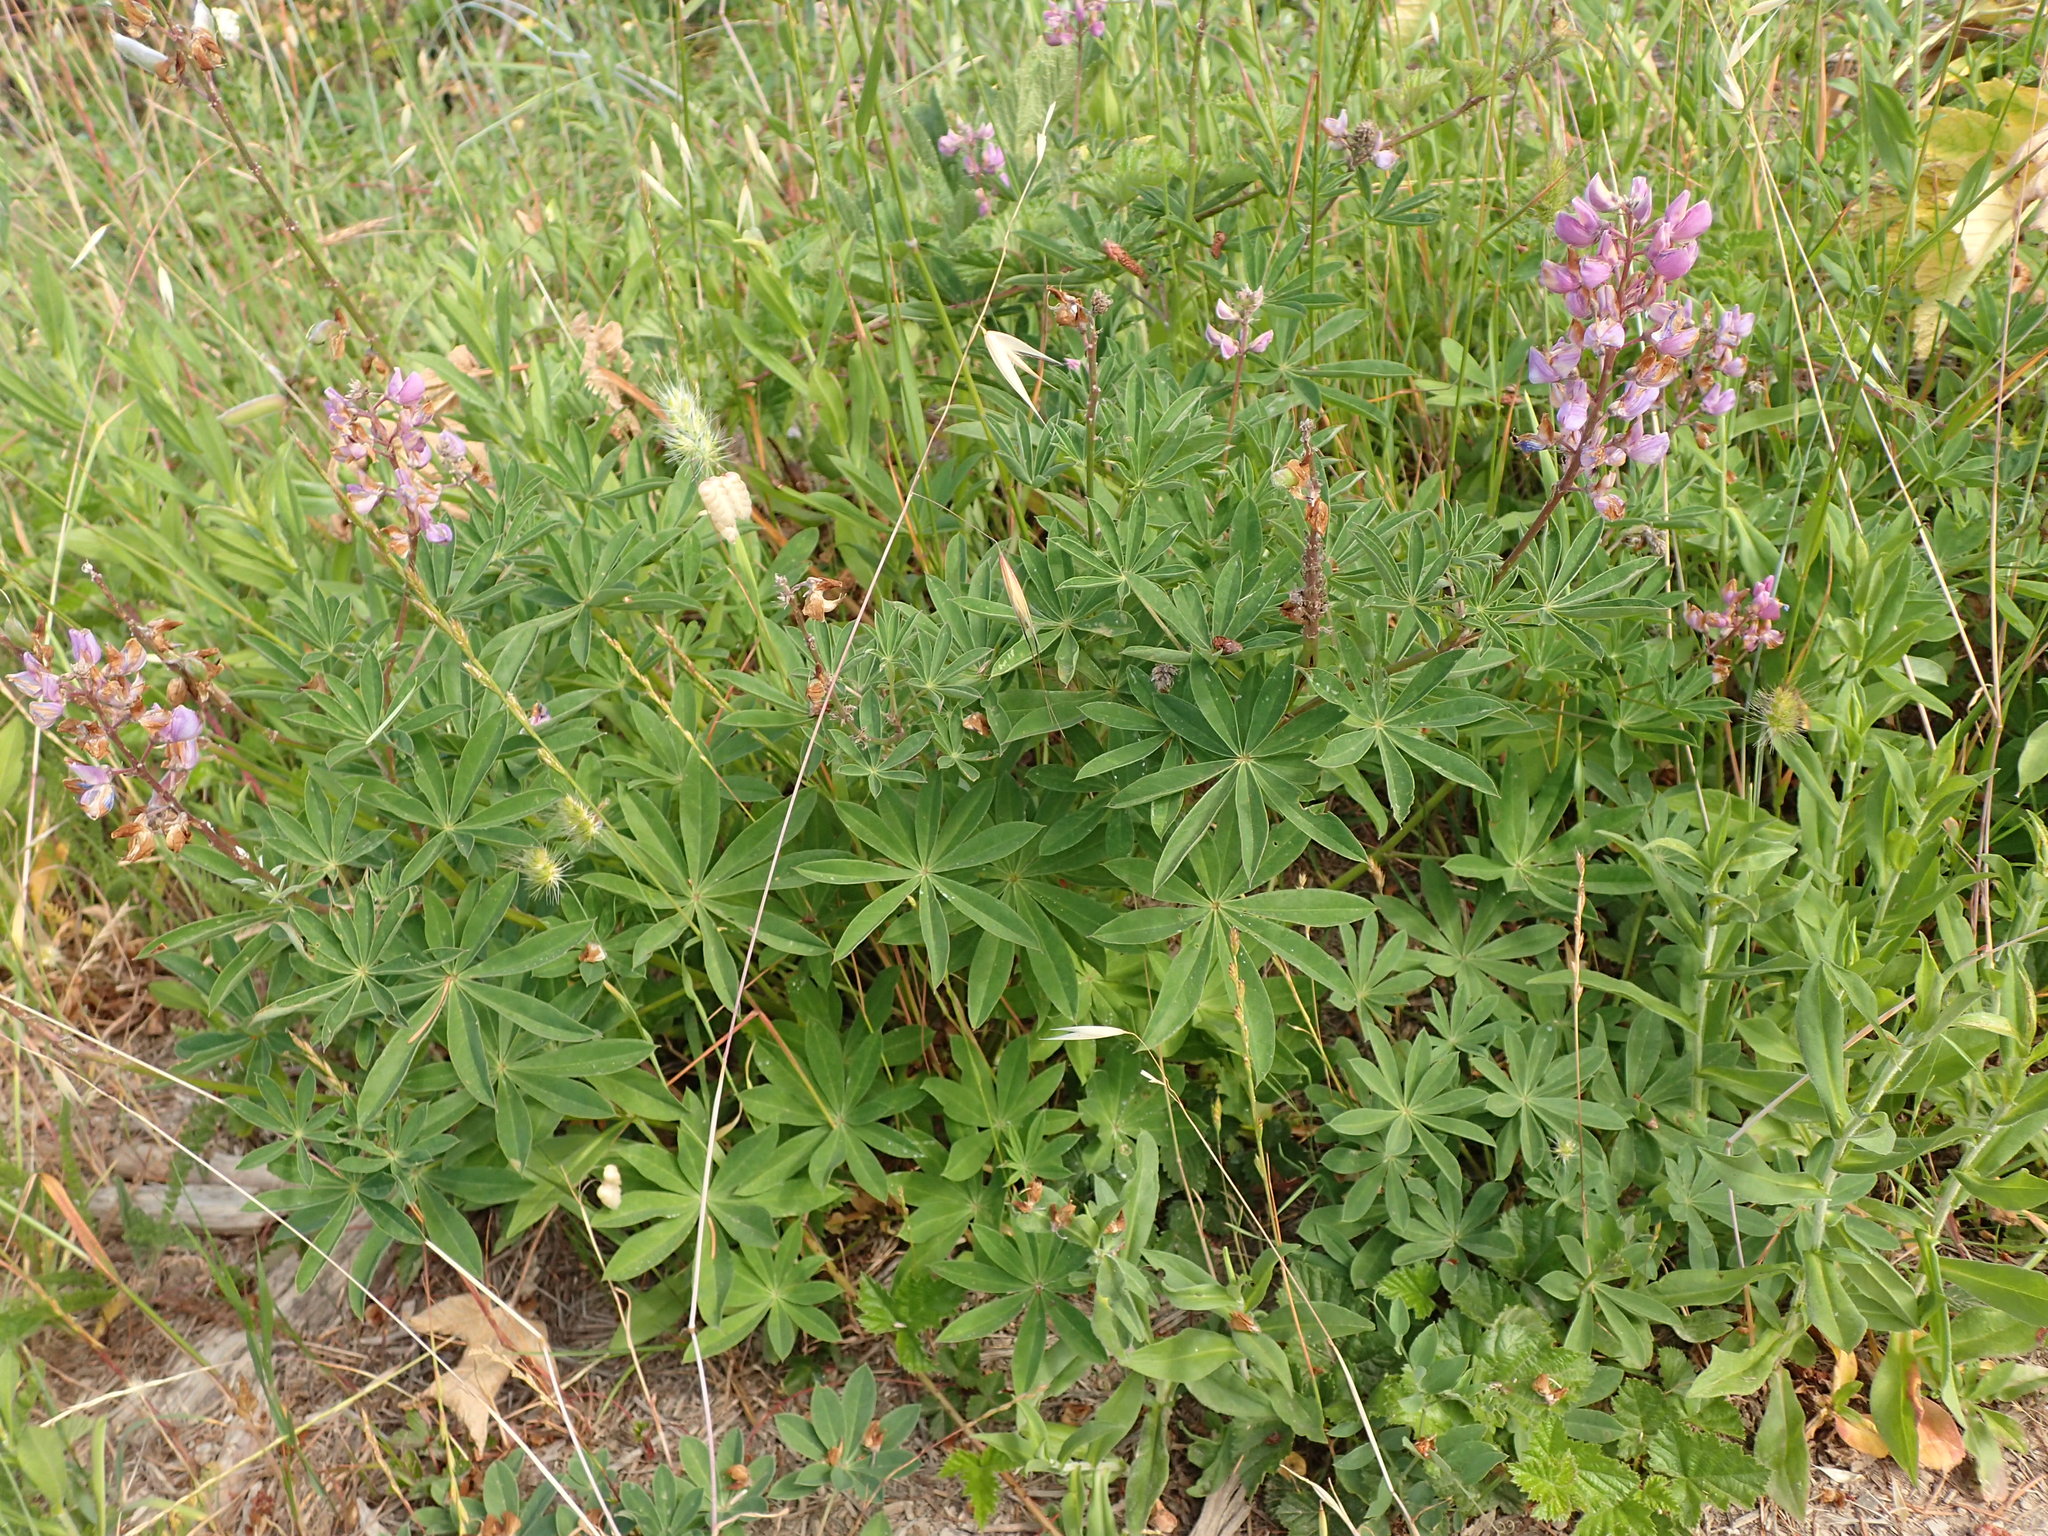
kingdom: Plantae
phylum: Tracheophyta
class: Magnoliopsida
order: Fabales
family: Fabaceae
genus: Lupinus
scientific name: Lupinus latifolius
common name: Broad-leaved lupine
